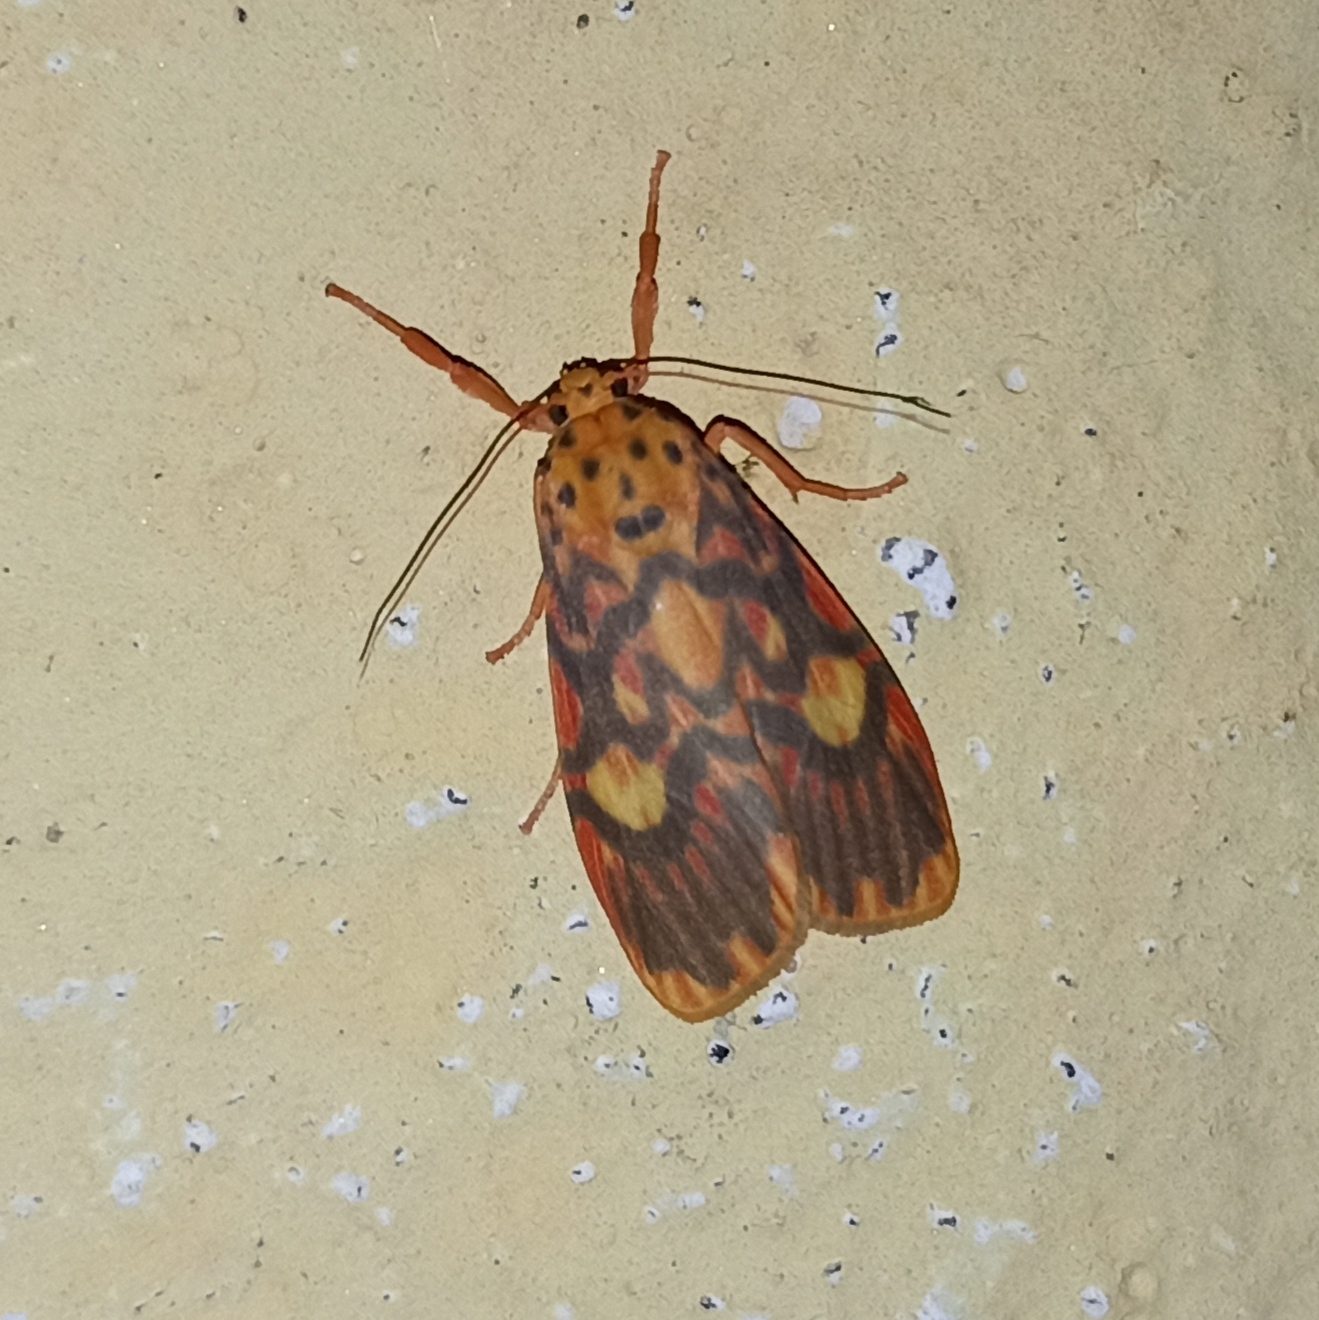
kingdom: Animalia
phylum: Arthropoda
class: Insecta
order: Lepidoptera
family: Erebidae
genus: Ammatho
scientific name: Ammatho cuneonotatus
